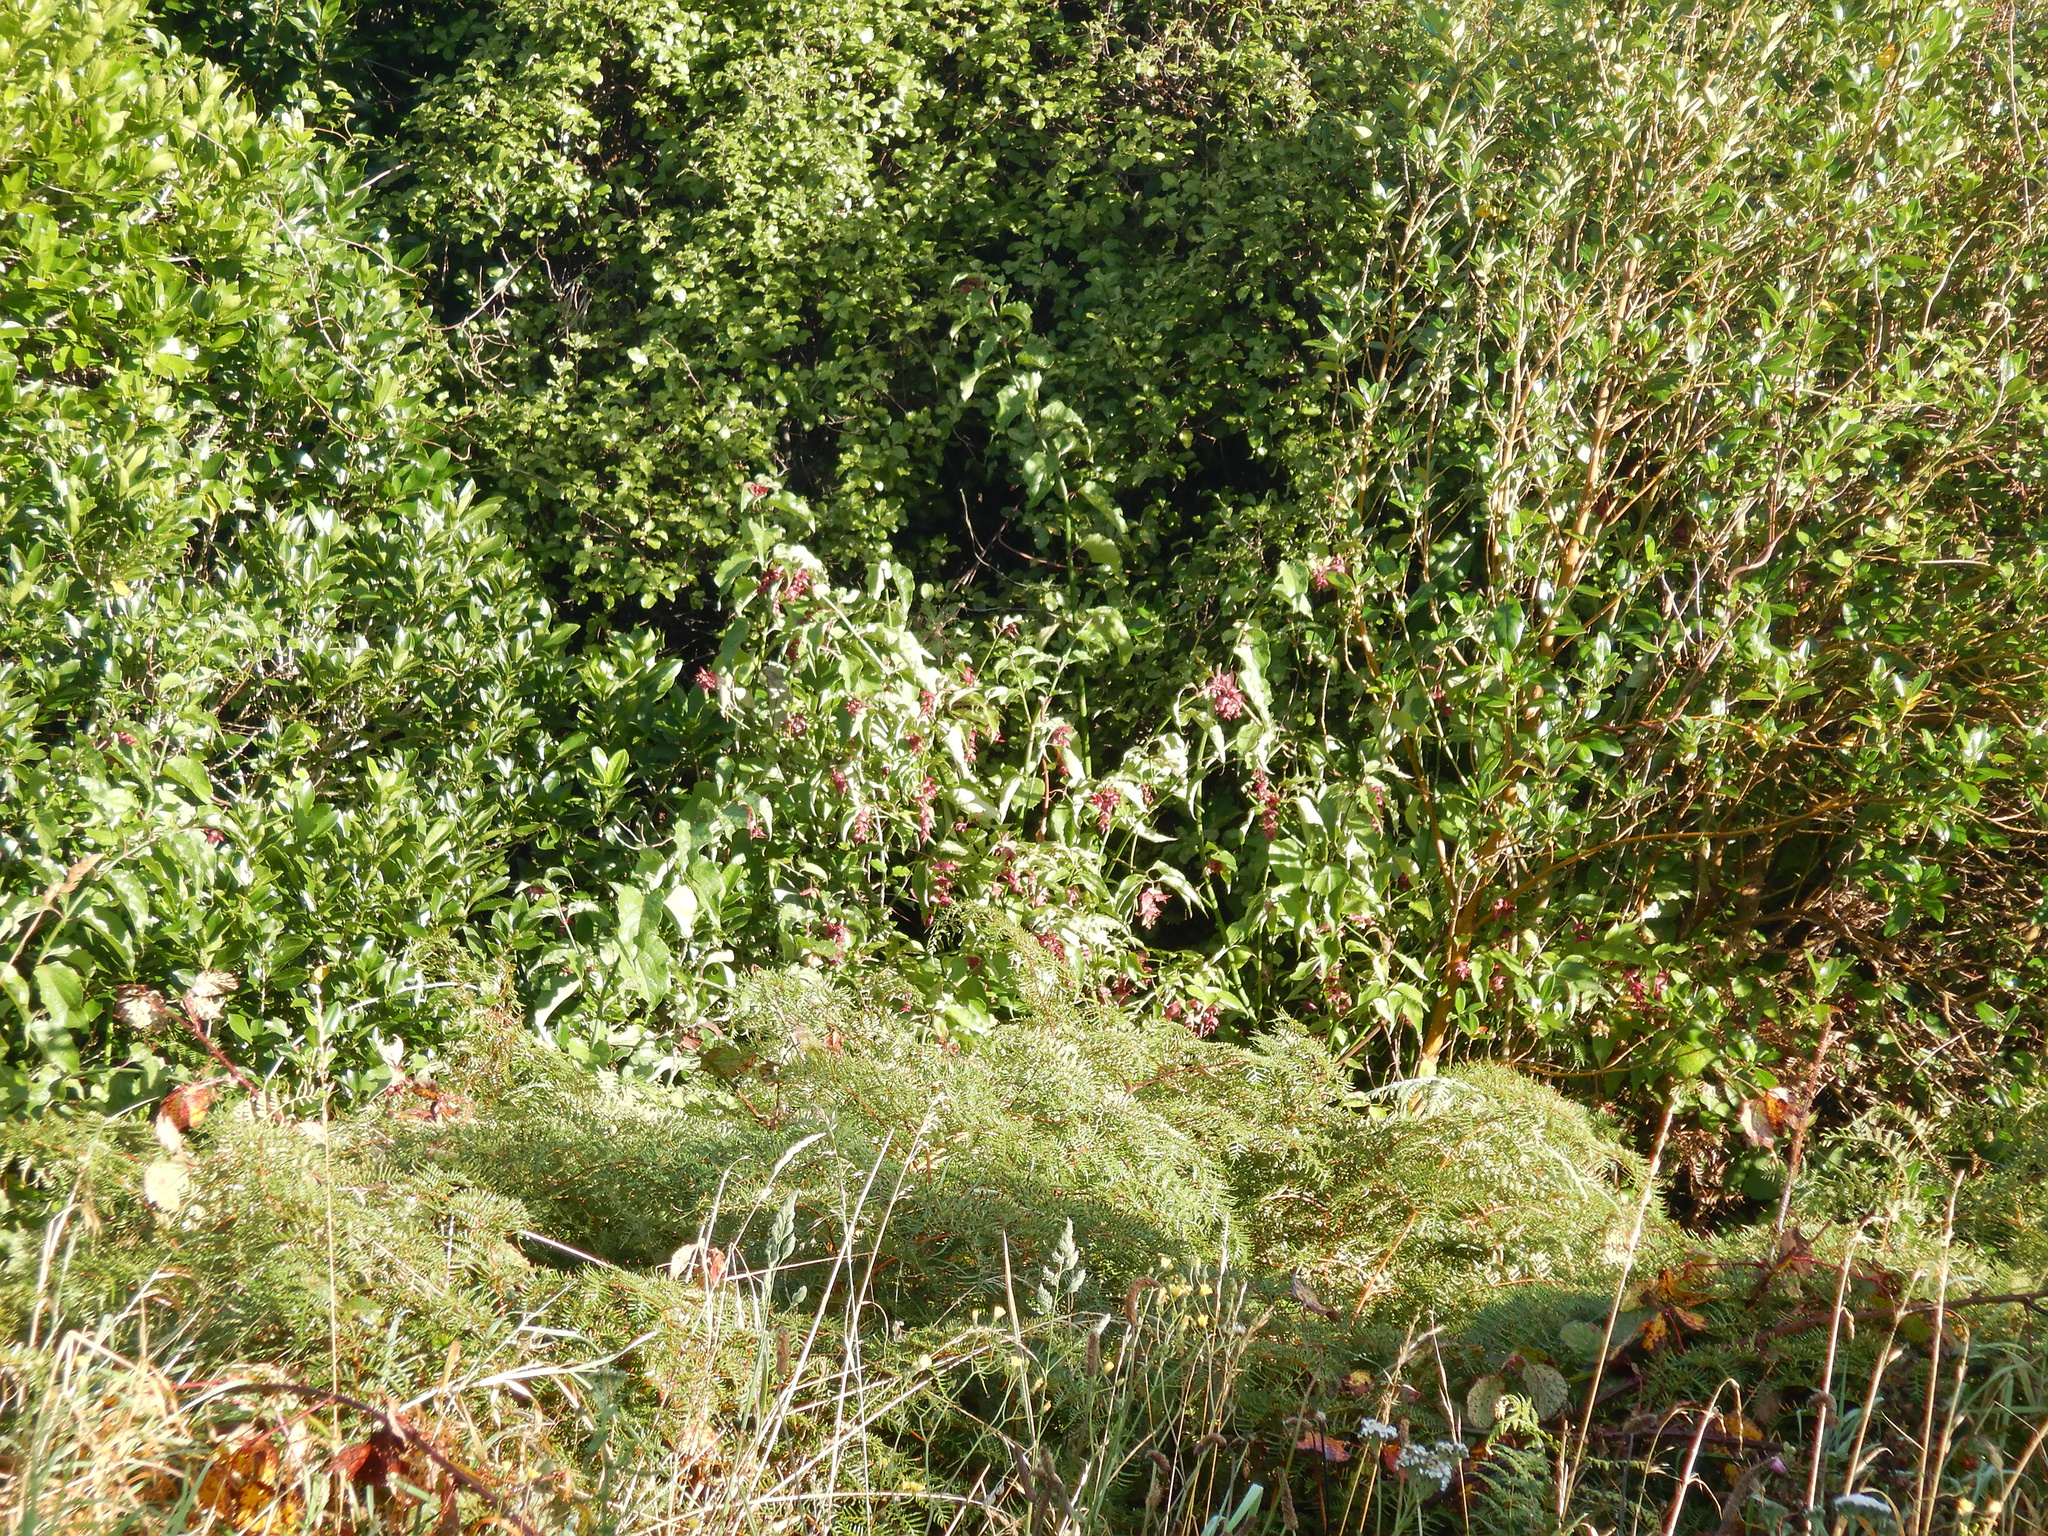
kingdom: Plantae
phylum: Tracheophyta
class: Magnoliopsida
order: Dipsacales
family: Caprifoliaceae
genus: Leycesteria
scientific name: Leycesteria formosa
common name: Himalayan honeysuckle
